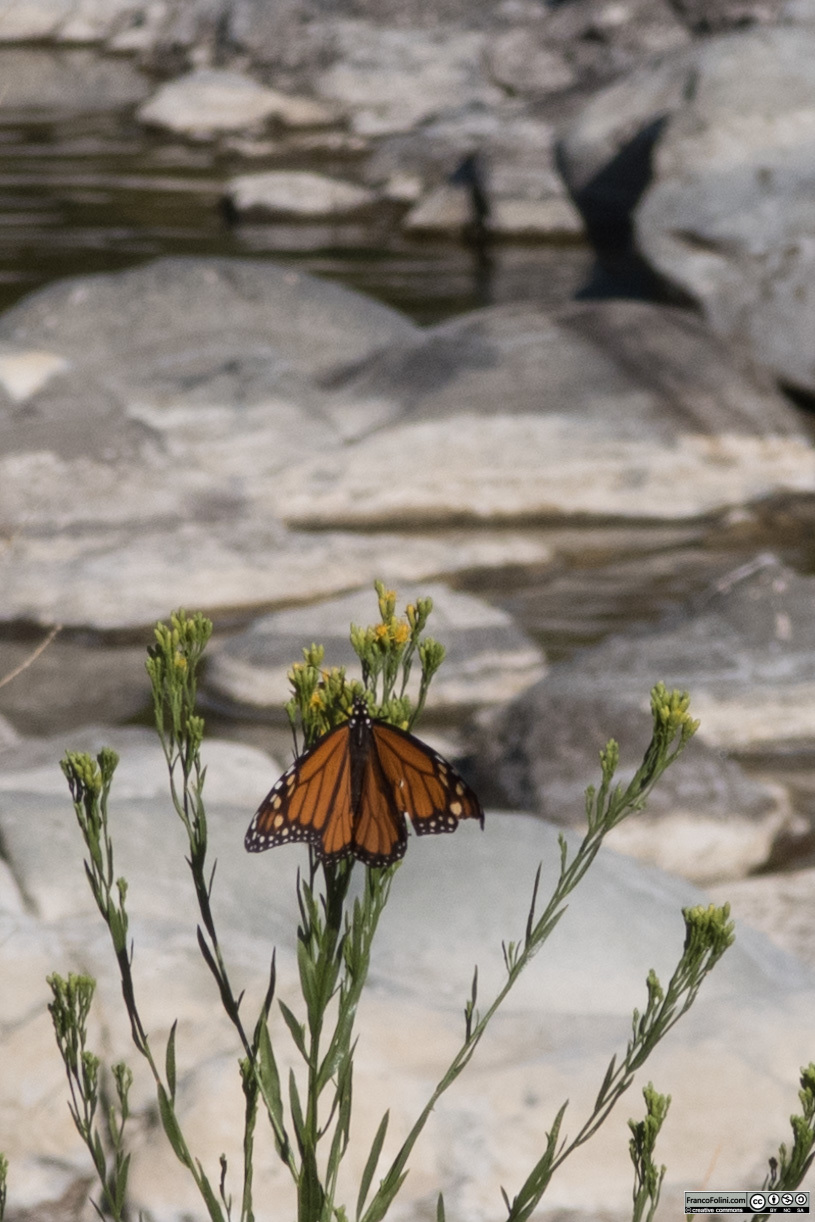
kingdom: Animalia
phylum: Arthropoda
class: Insecta
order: Lepidoptera
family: Nymphalidae
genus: Danaus
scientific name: Danaus plexippus
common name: Monarch
